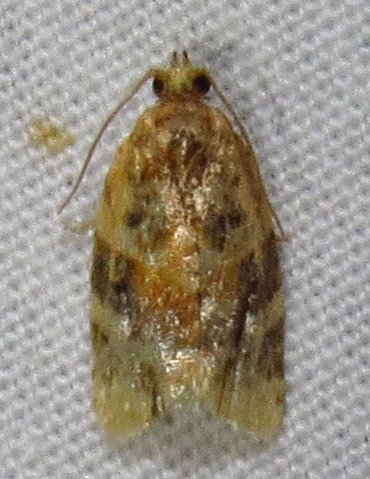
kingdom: Animalia
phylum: Arthropoda
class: Insecta
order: Lepidoptera
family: Tortricidae
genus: Argyrotaenia
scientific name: Argyrotaenia velutinana
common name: Red-banded leafroller moth
